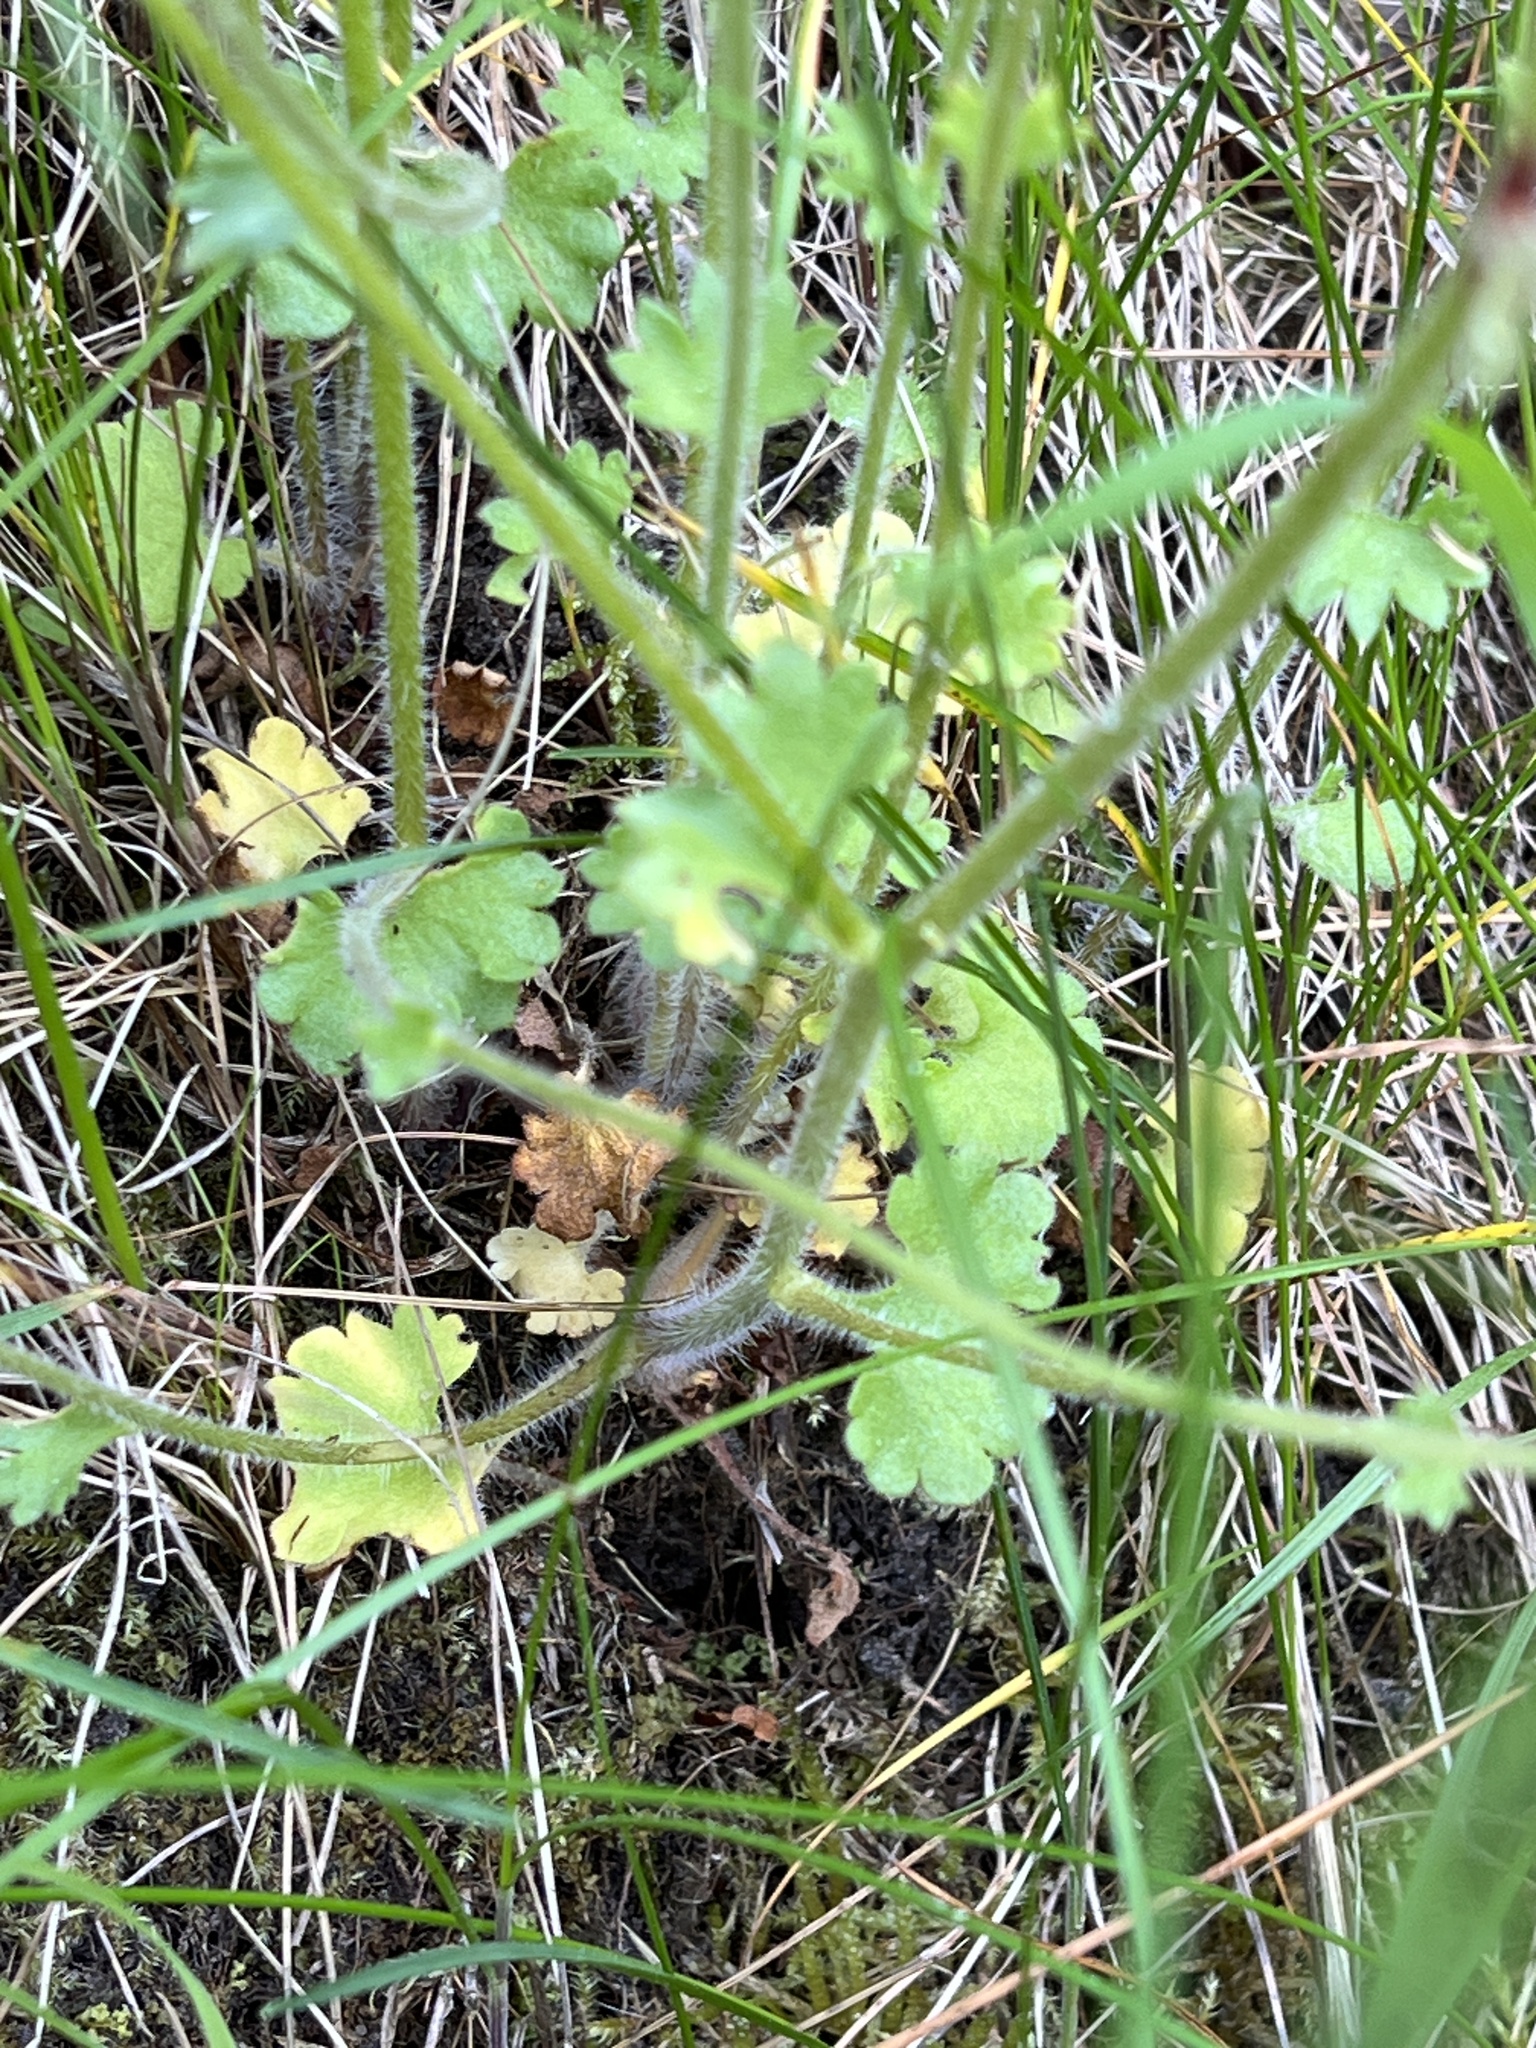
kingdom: Plantae
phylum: Tracheophyta
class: Magnoliopsida
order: Saxifragales
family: Saxifragaceae
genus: Saxifraga
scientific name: Saxifraga granulata
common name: Meadow saxifrage
